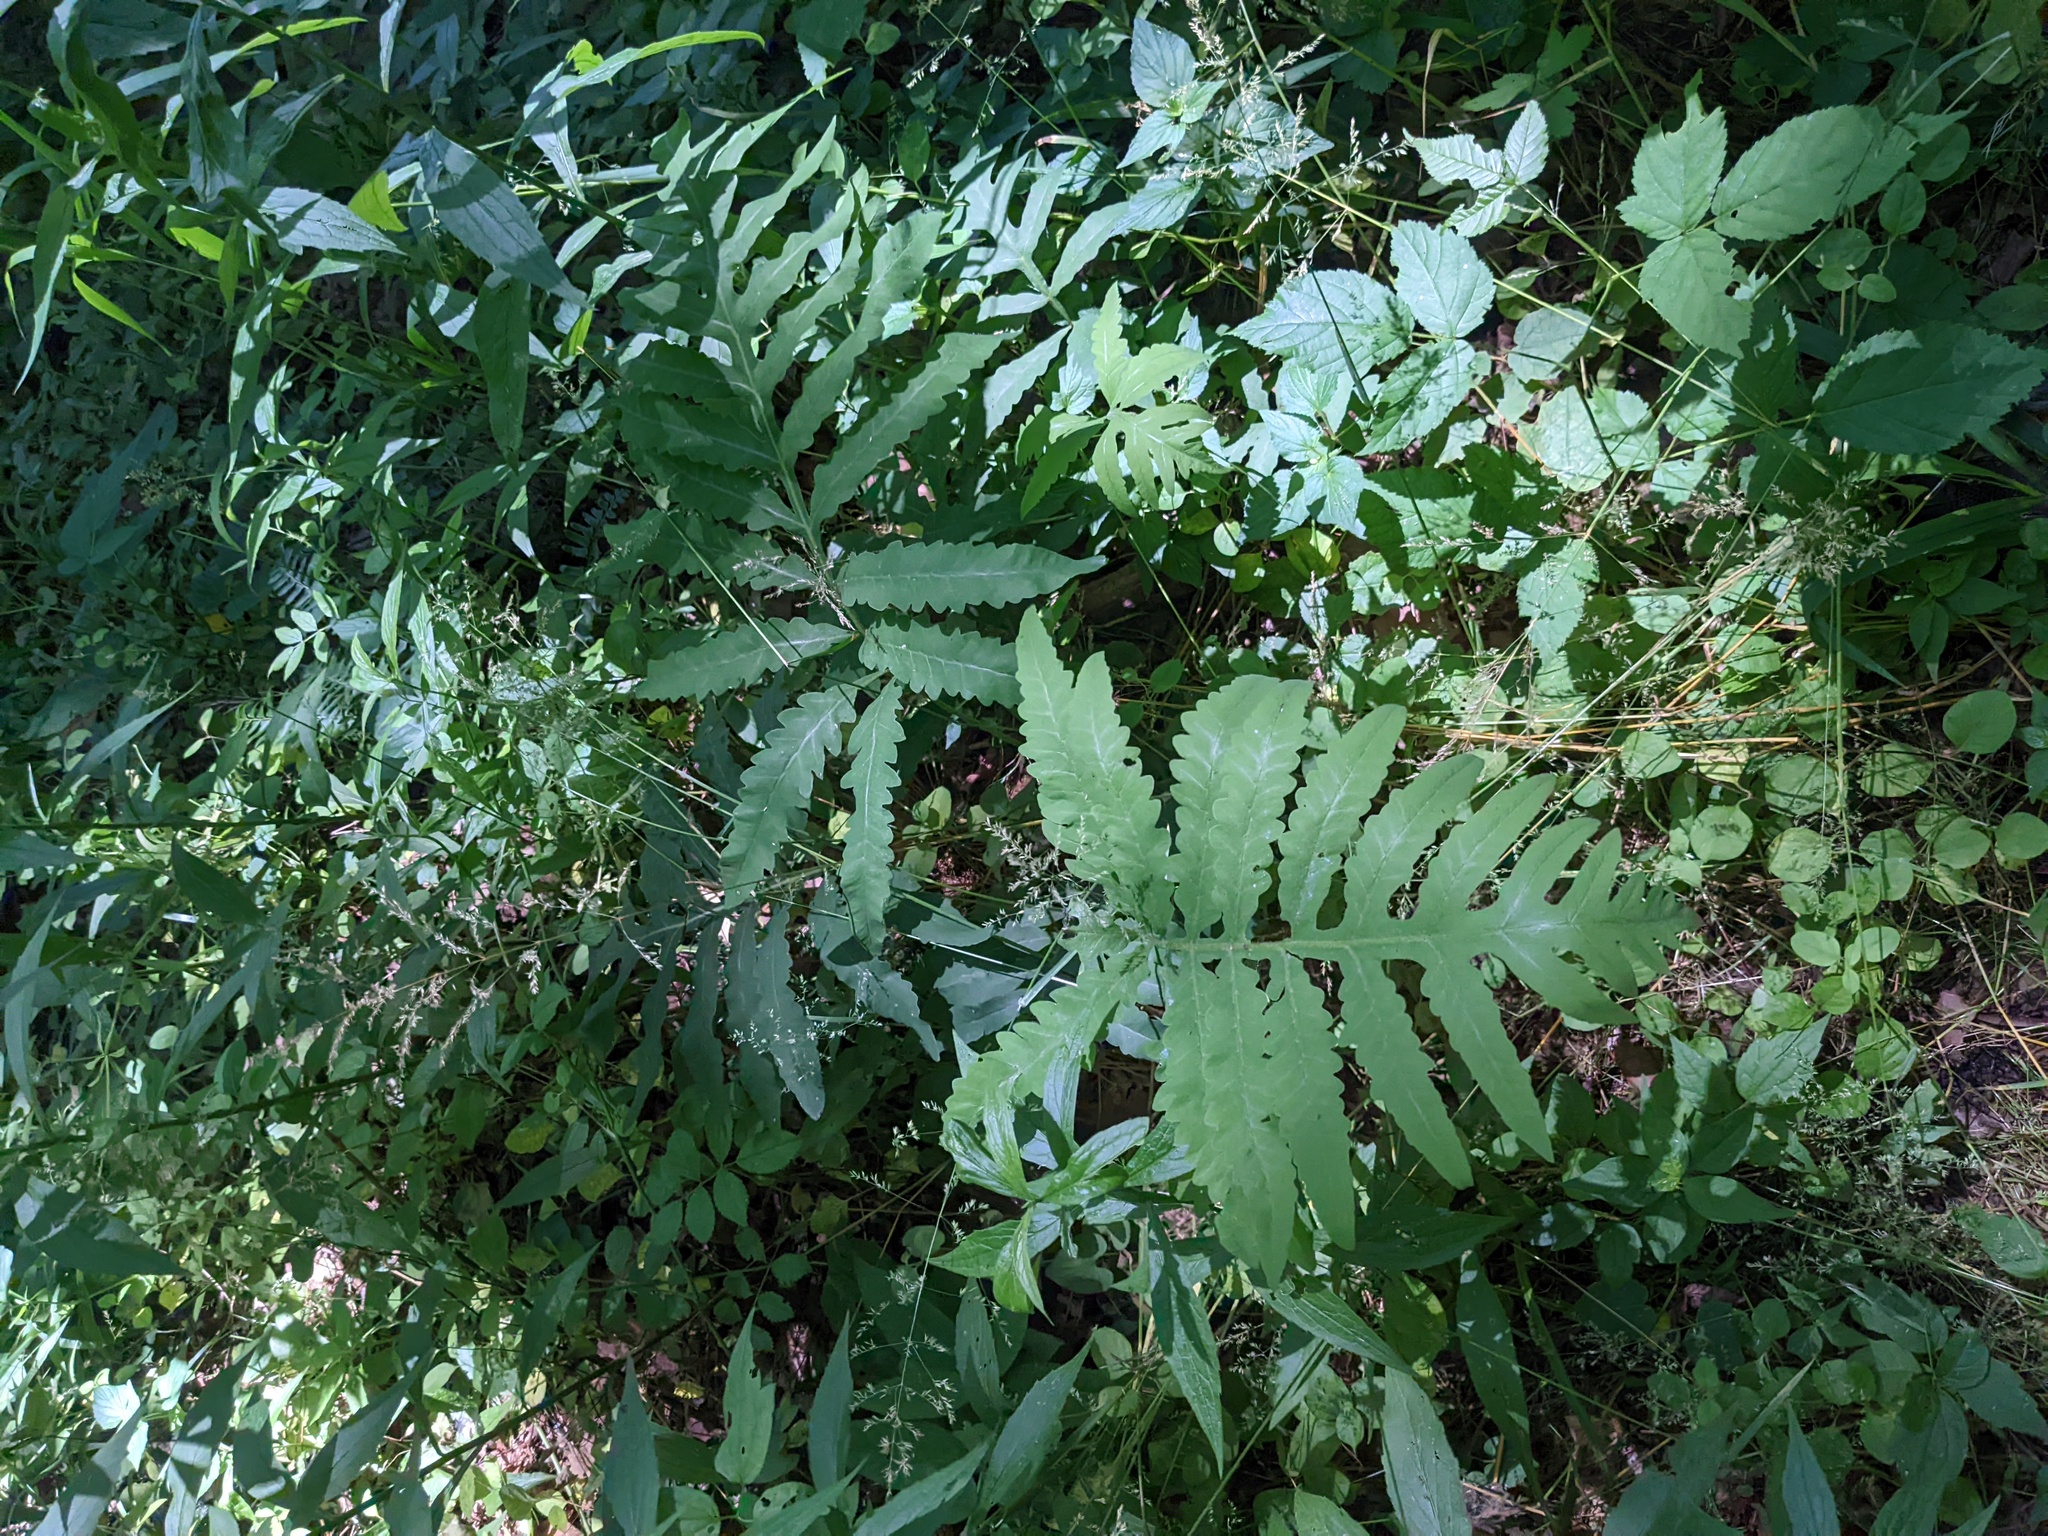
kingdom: Plantae
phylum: Tracheophyta
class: Polypodiopsida
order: Polypodiales
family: Onocleaceae
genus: Onoclea
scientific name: Onoclea sensibilis
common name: Sensitive fern
